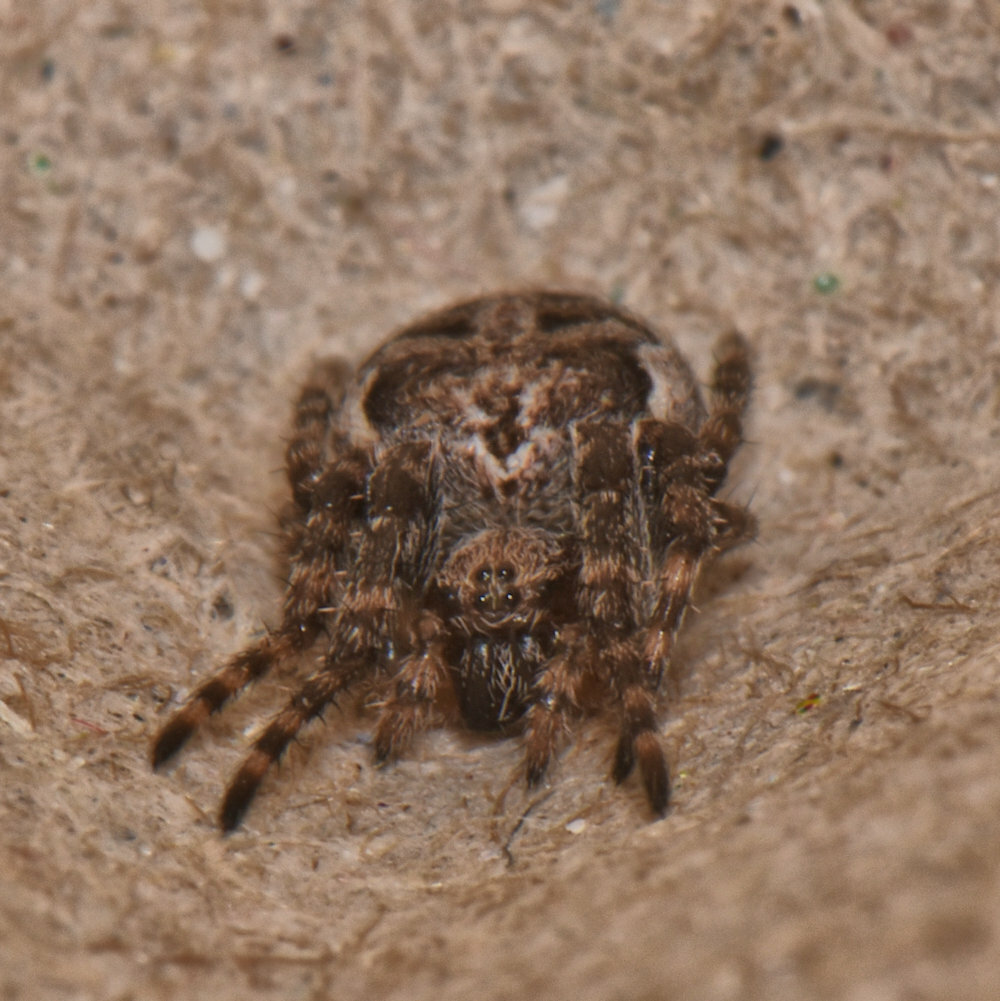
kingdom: Animalia
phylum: Arthropoda
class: Arachnida
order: Araneae
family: Araneidae
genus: Larinioides
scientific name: Larinioides sclopetarius
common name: Bridge orbweaver
